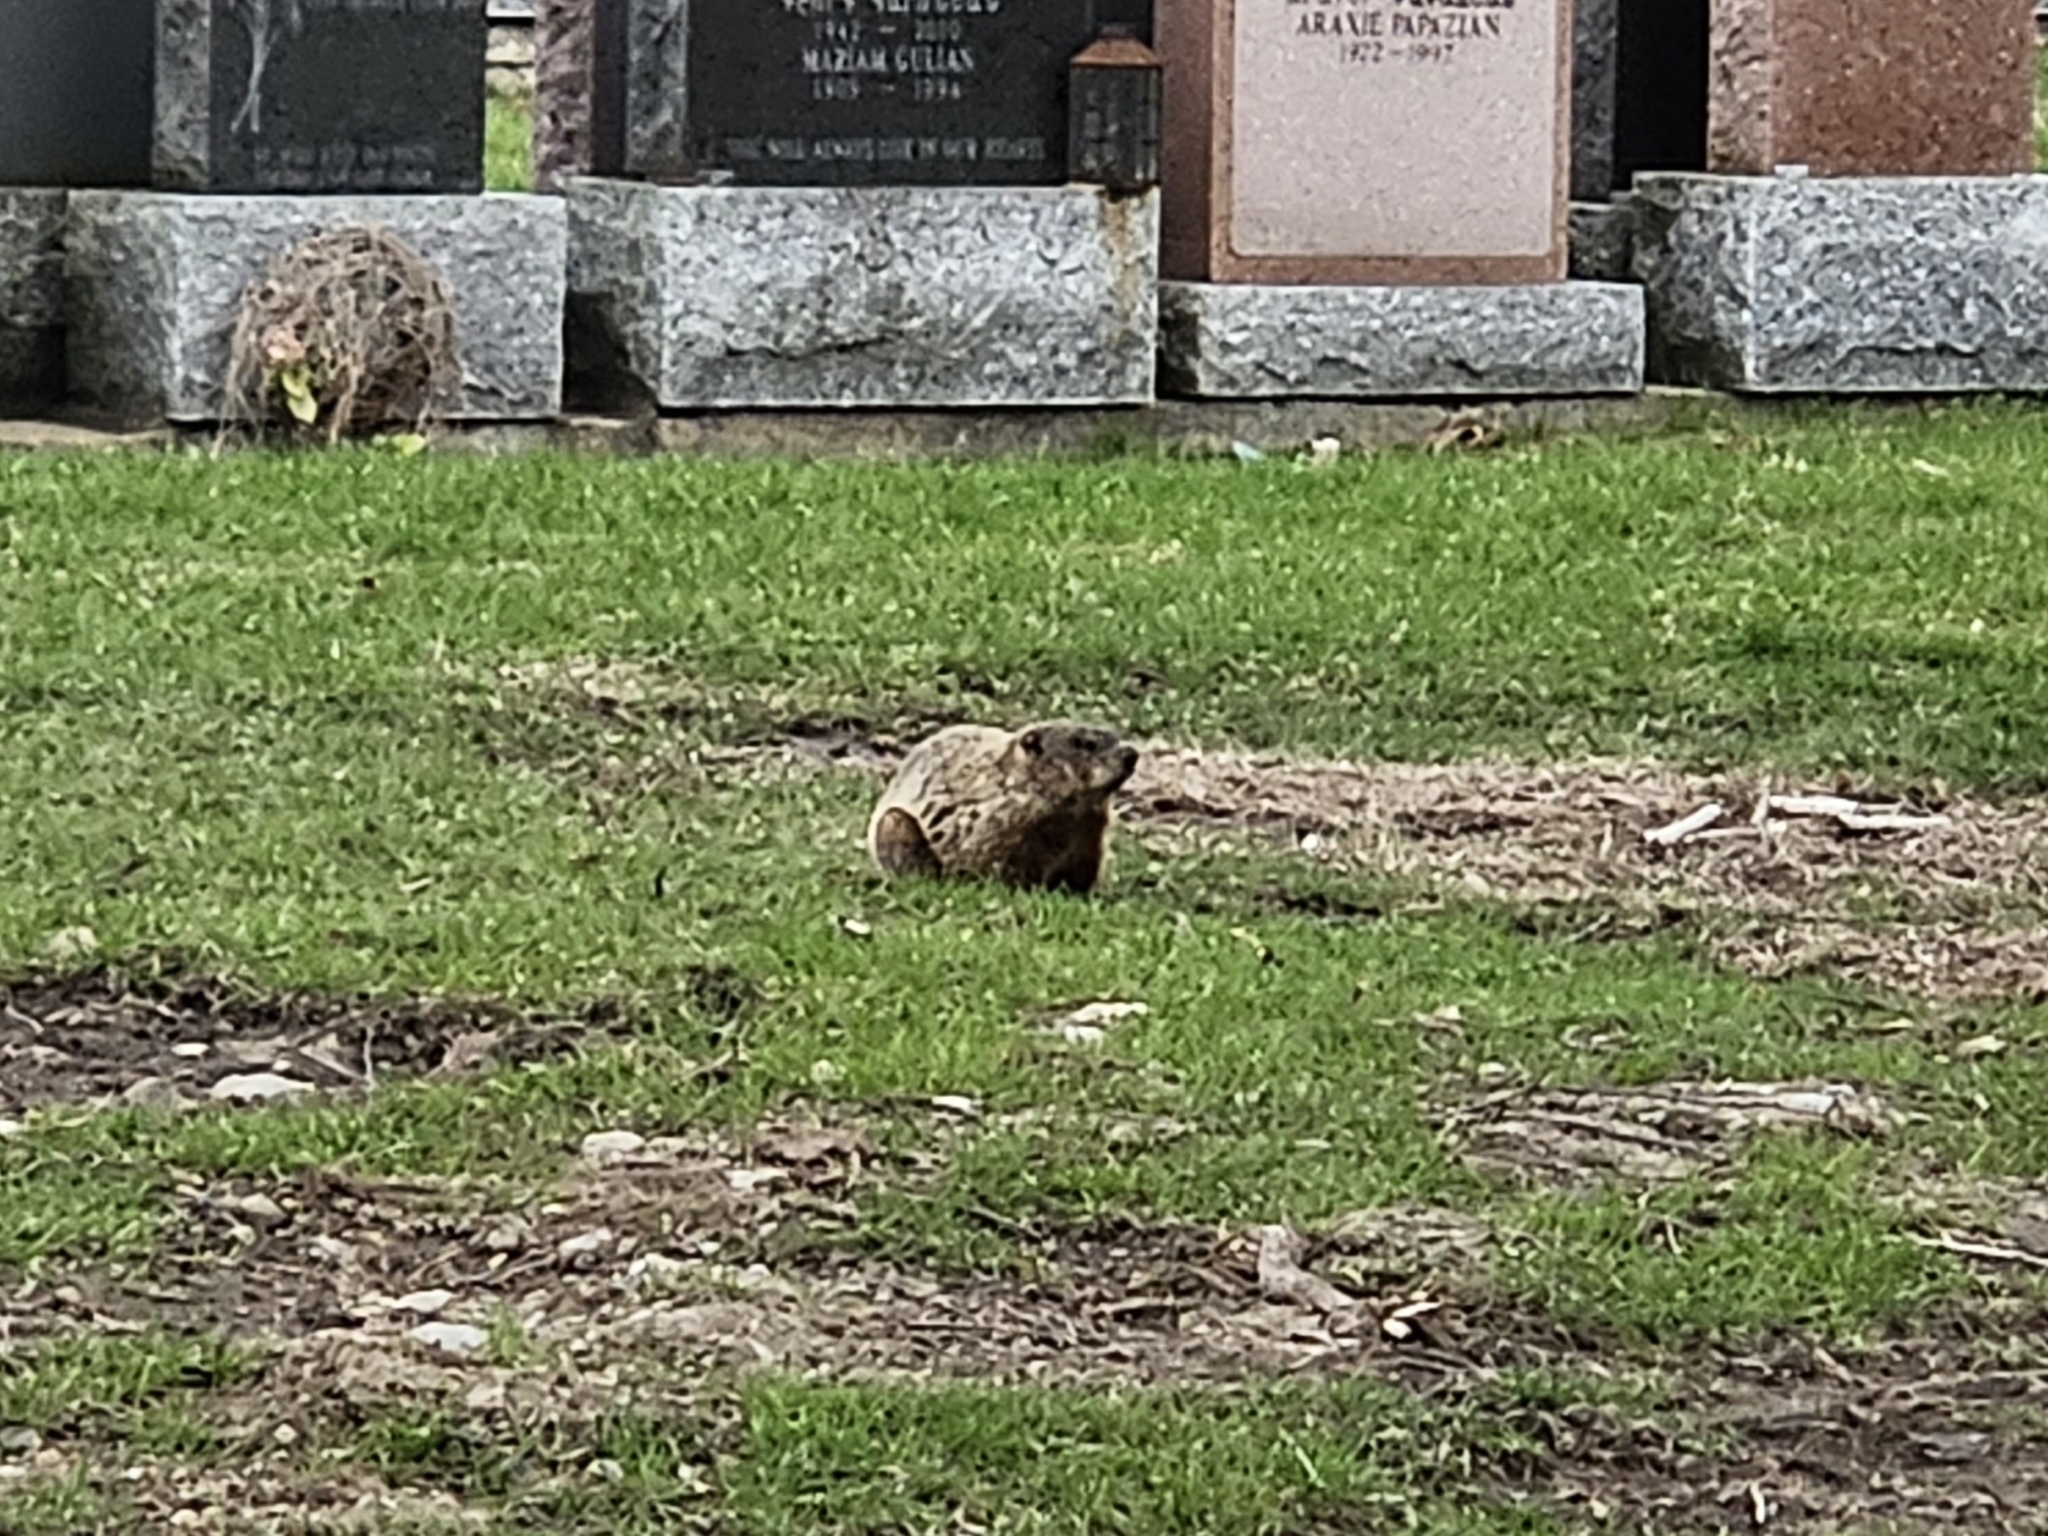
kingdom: Animalia
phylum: Chordata
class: Mammalia
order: Rodentia
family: Sciuridae
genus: Marmota
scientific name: Marmota monax
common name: Groundhog
